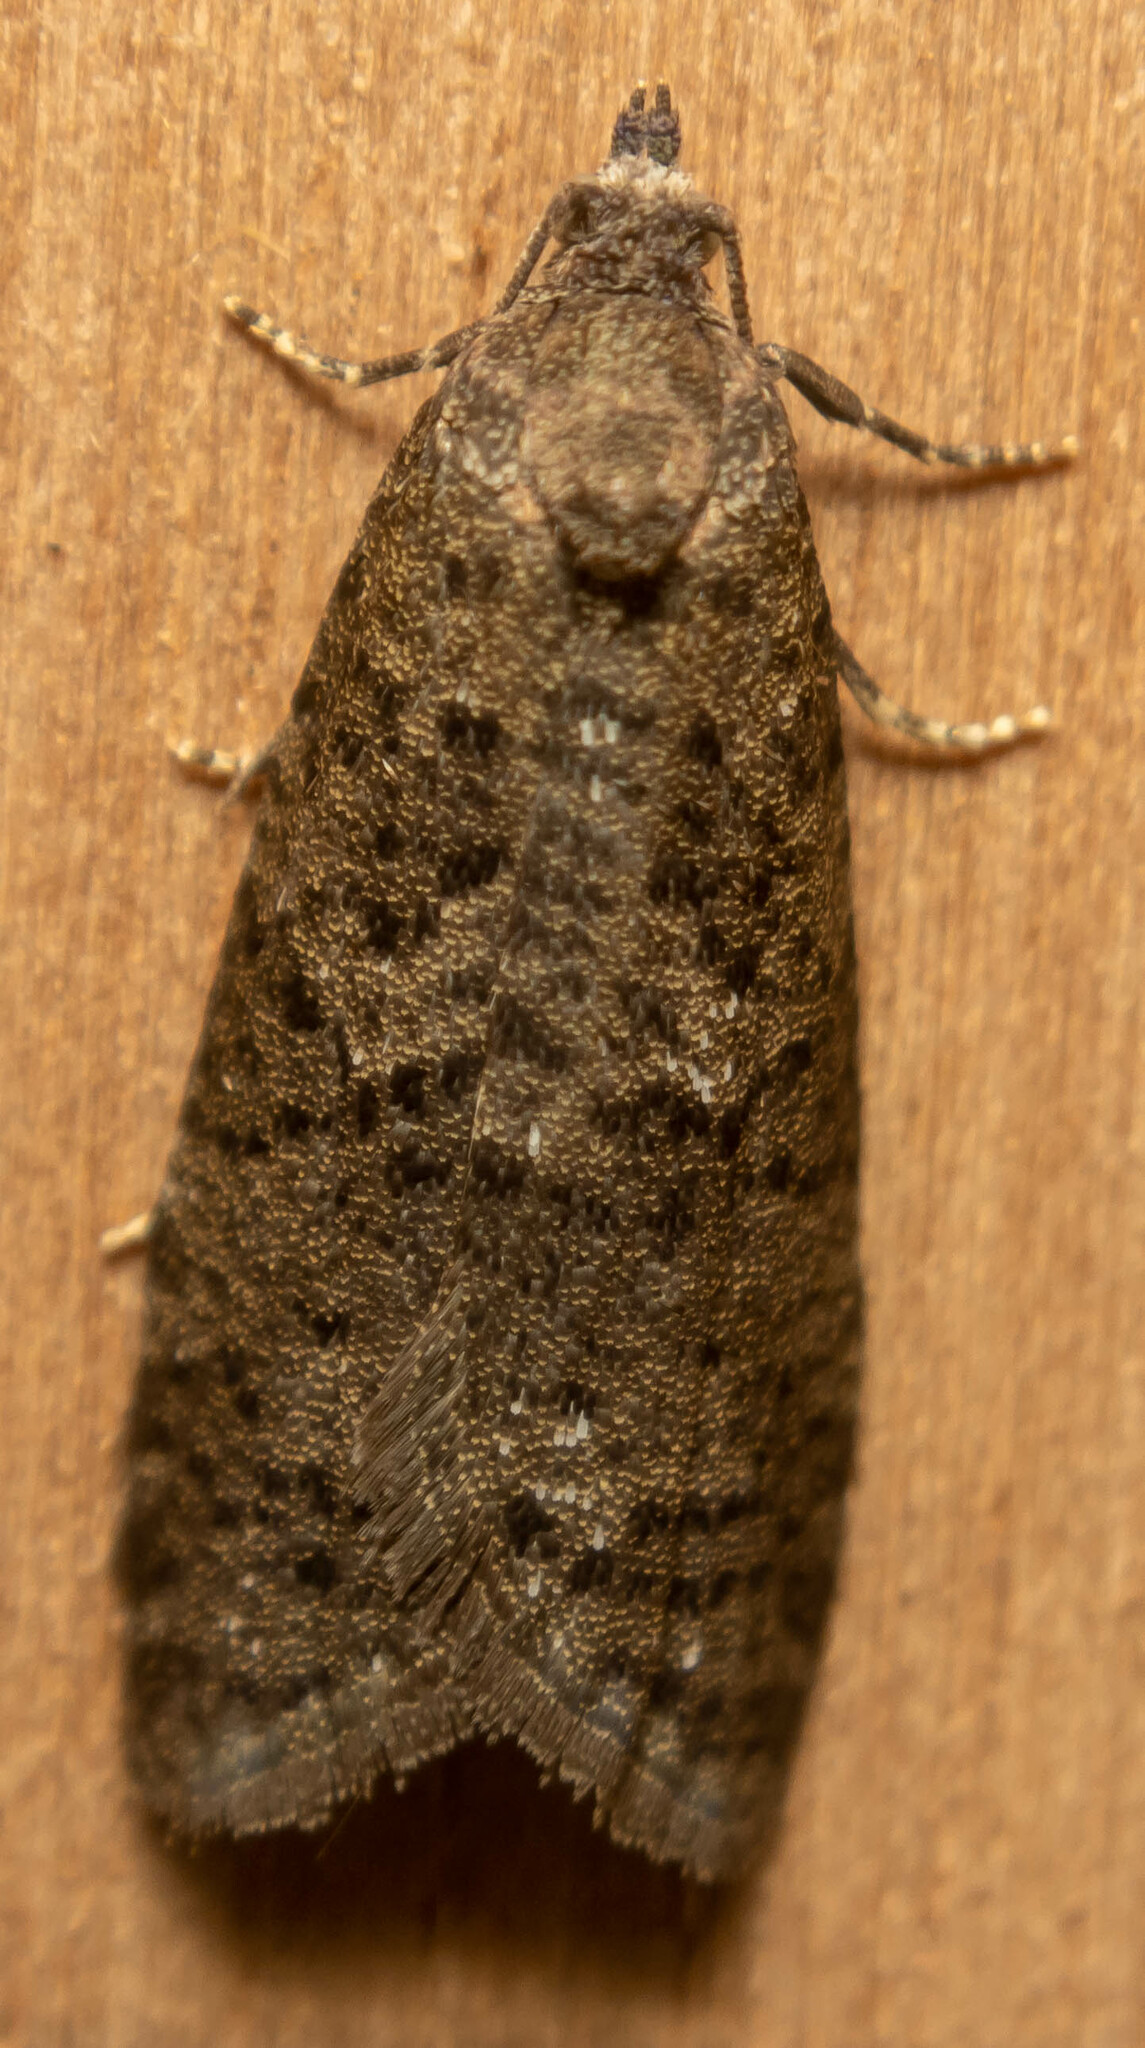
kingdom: Animalia
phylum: Arthropoda
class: Insecta
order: Lepidoptera
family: Tortricidae
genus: Cnephasia
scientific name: Cnephasia
